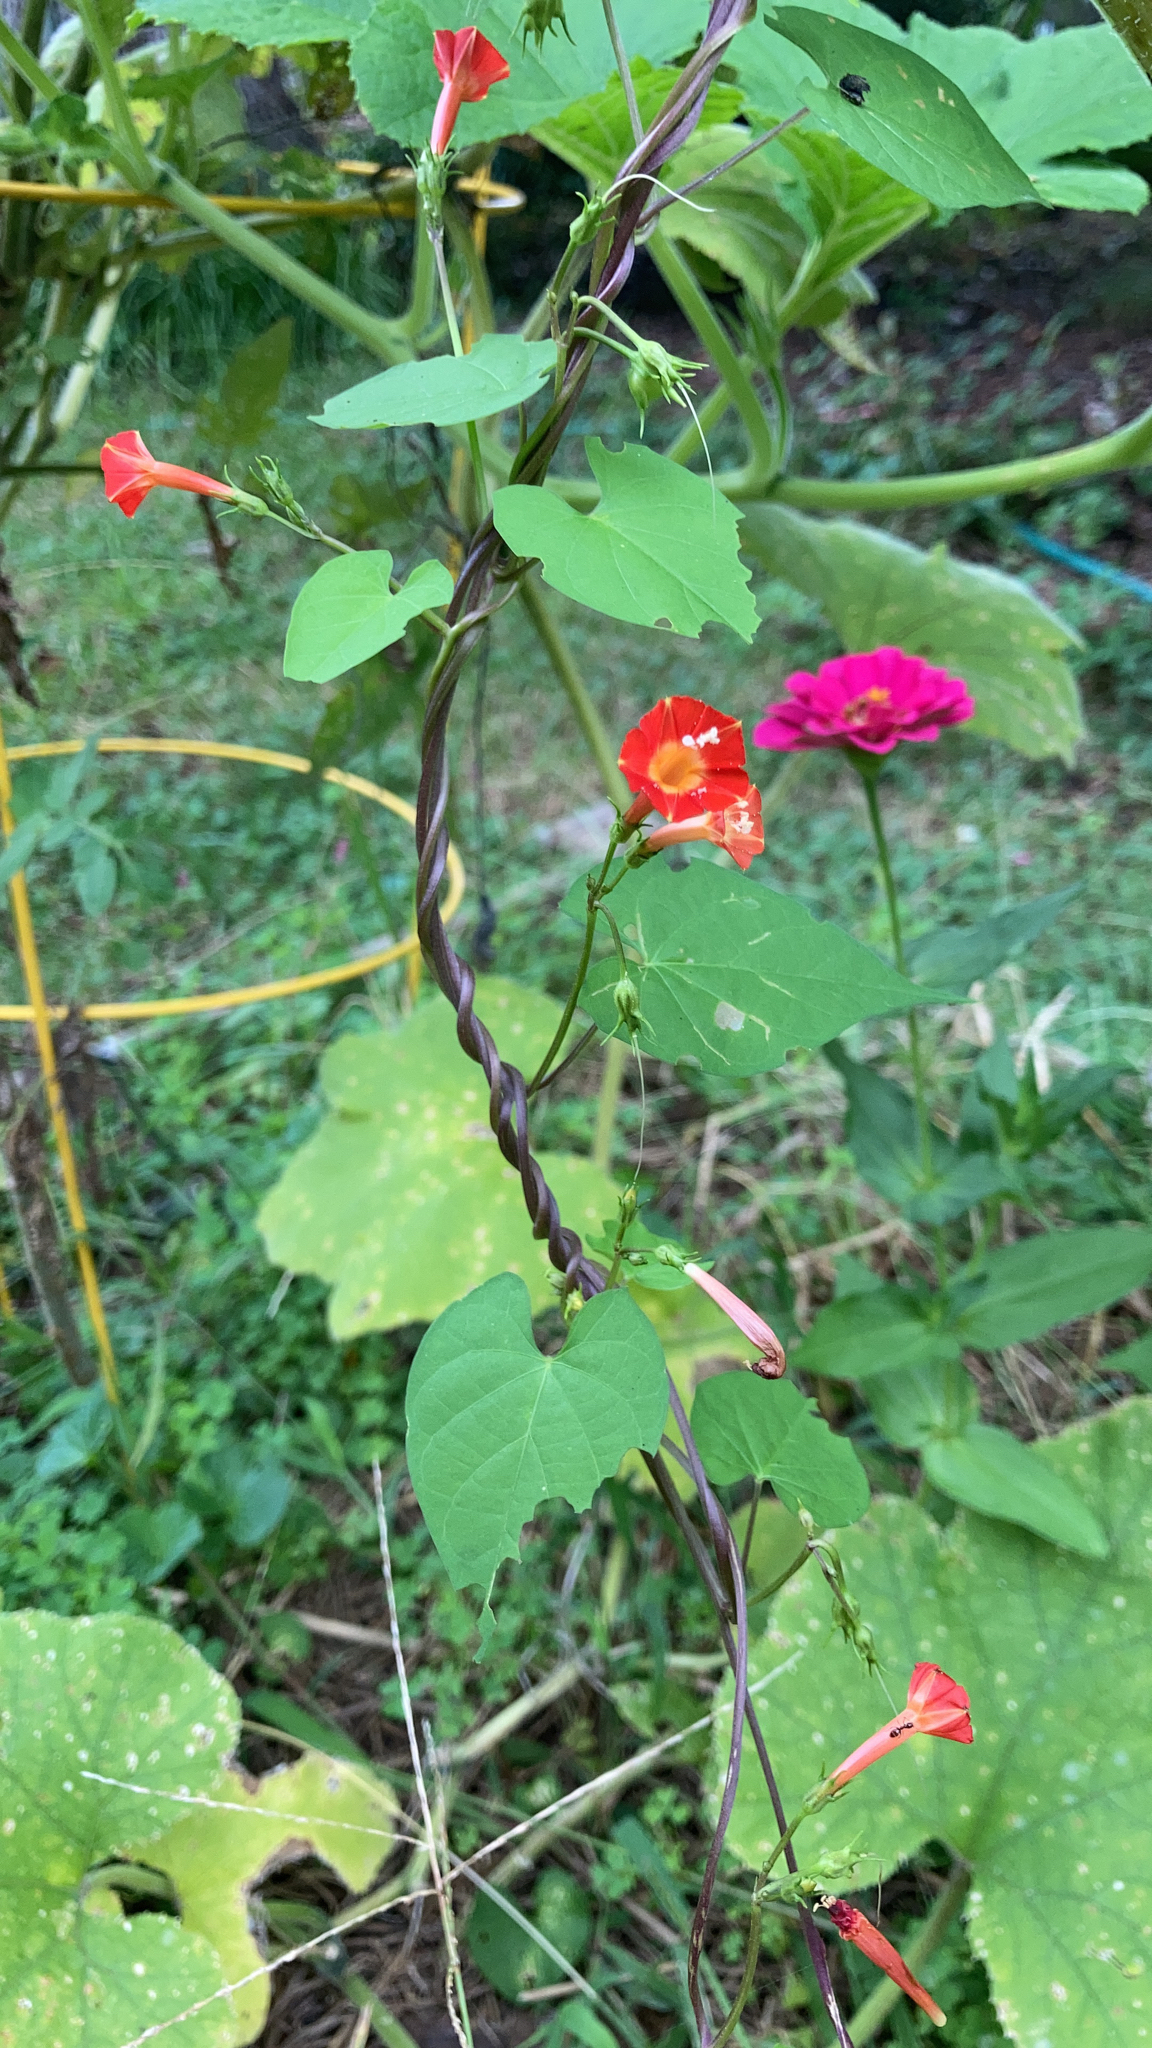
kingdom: Plantae
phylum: Tracheophyta
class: Magnoliopsida
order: Solanales
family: Convolvulaceae
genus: Ipomoea
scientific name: Ipomoea coccinea
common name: Red morning-glory
